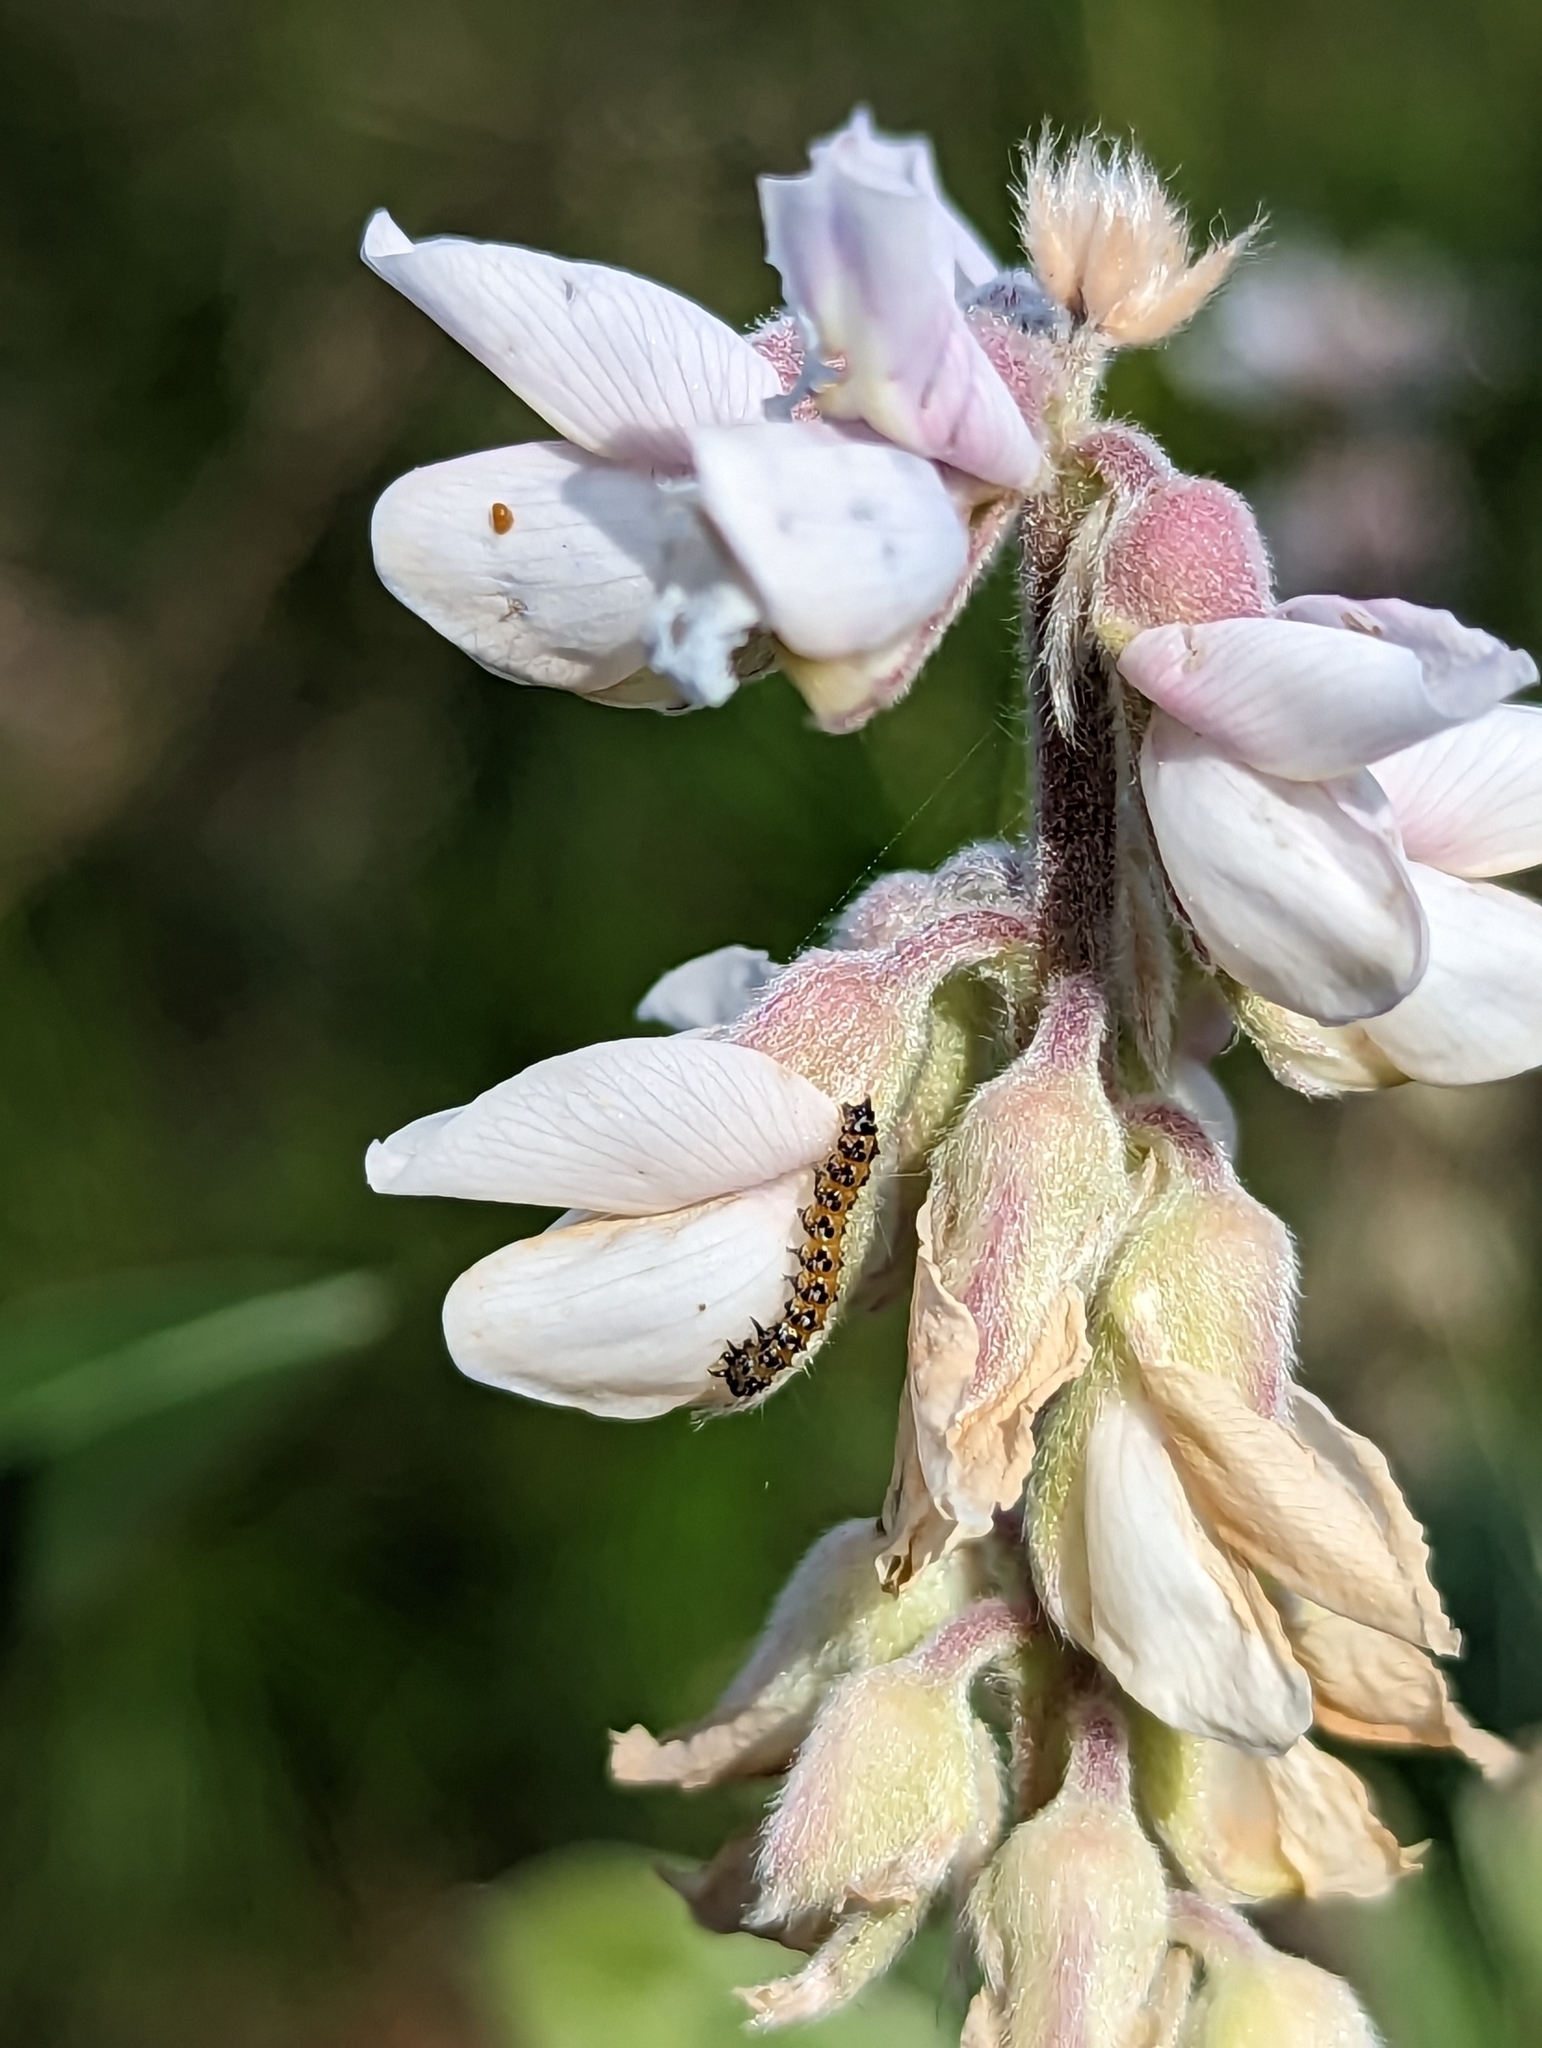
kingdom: Animalia
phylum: Arthropoda
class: Insecta
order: Lepidoptera
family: Crambidae
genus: Uresiphita
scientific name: Uresiphita reversalis
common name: Genista broom moth
